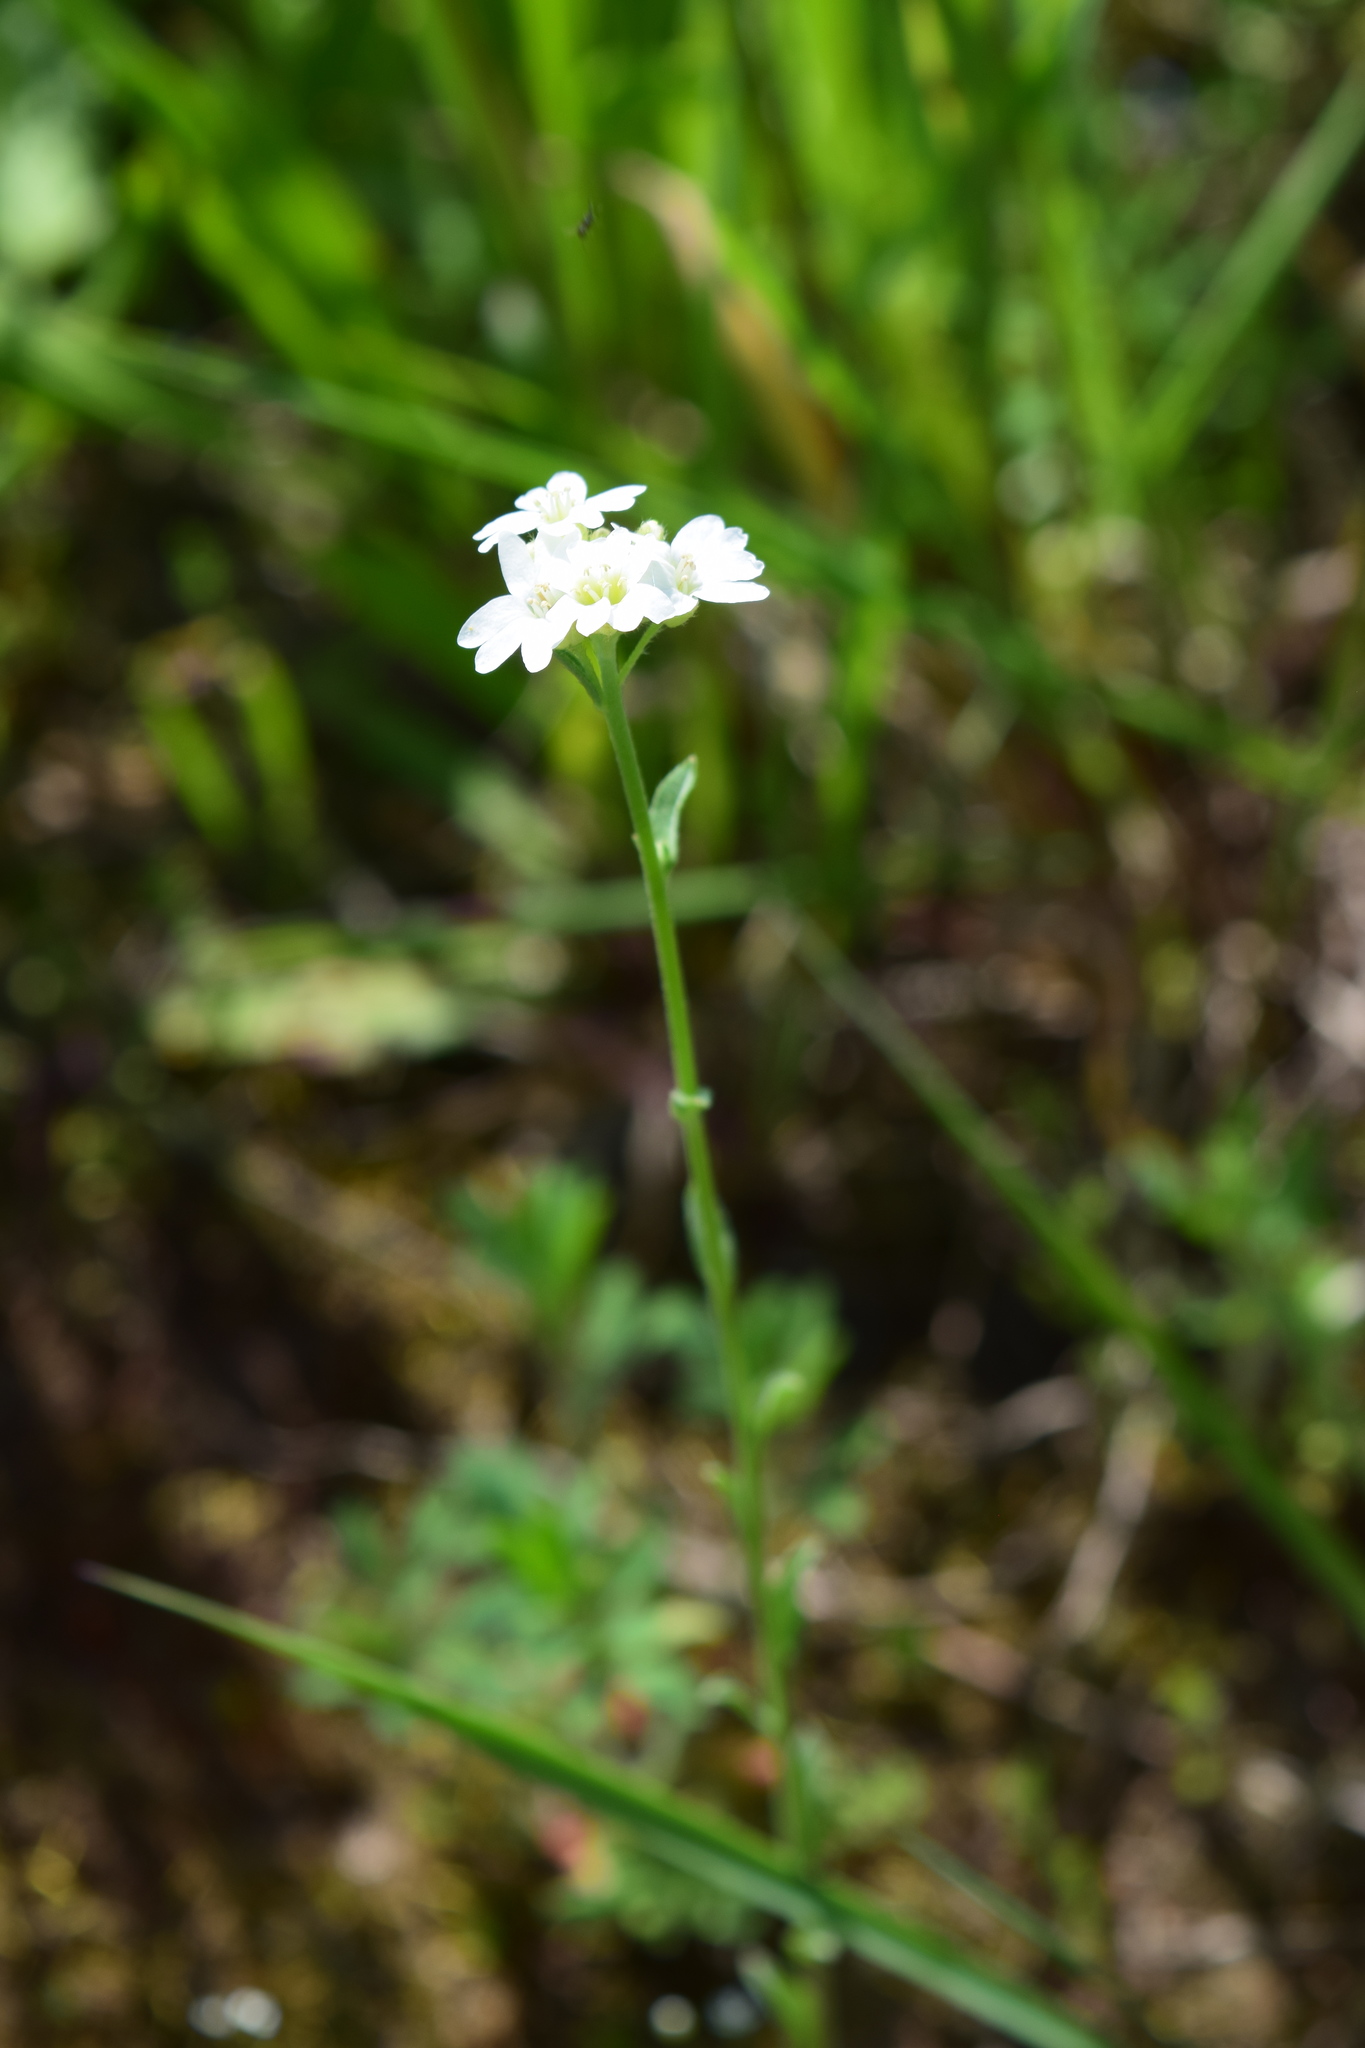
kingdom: Plantae
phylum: Tracheophyta
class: Magnoliopsida
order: Brassicales
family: Brassicaceae
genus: Berteroa
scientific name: Berteroa incana
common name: Hoary alison
